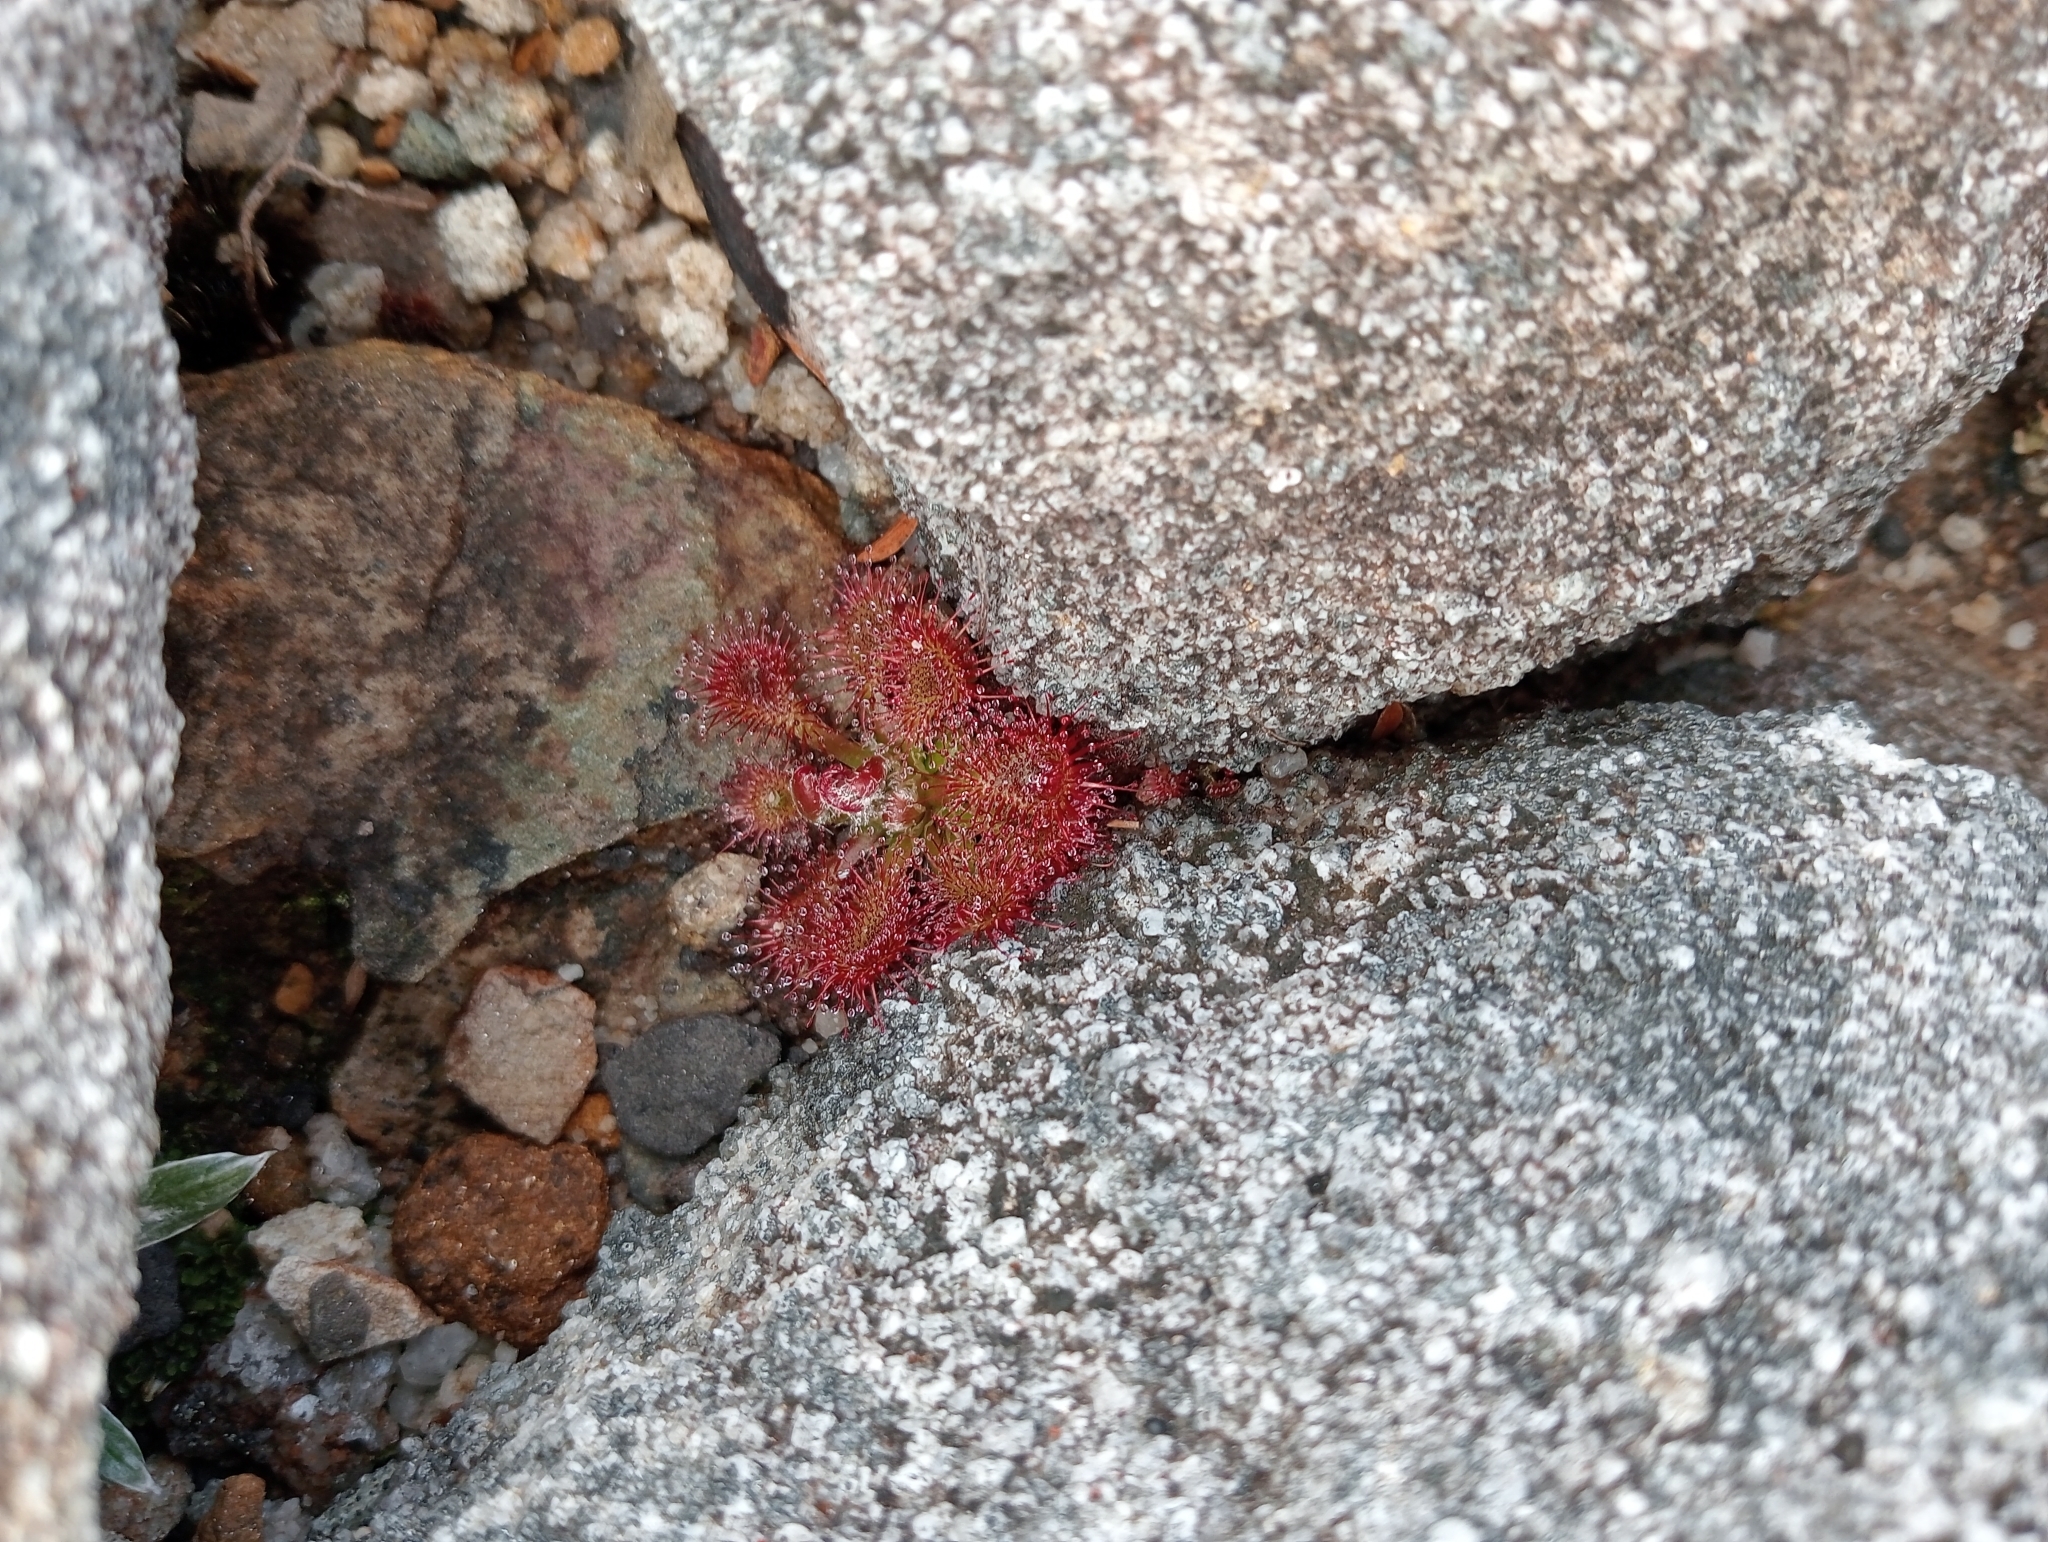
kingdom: Plantae
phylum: Tracheophyta
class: Magnoliopsida
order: Caryophyllales
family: Droseraceae
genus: Drosera
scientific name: Drosera spatulata
